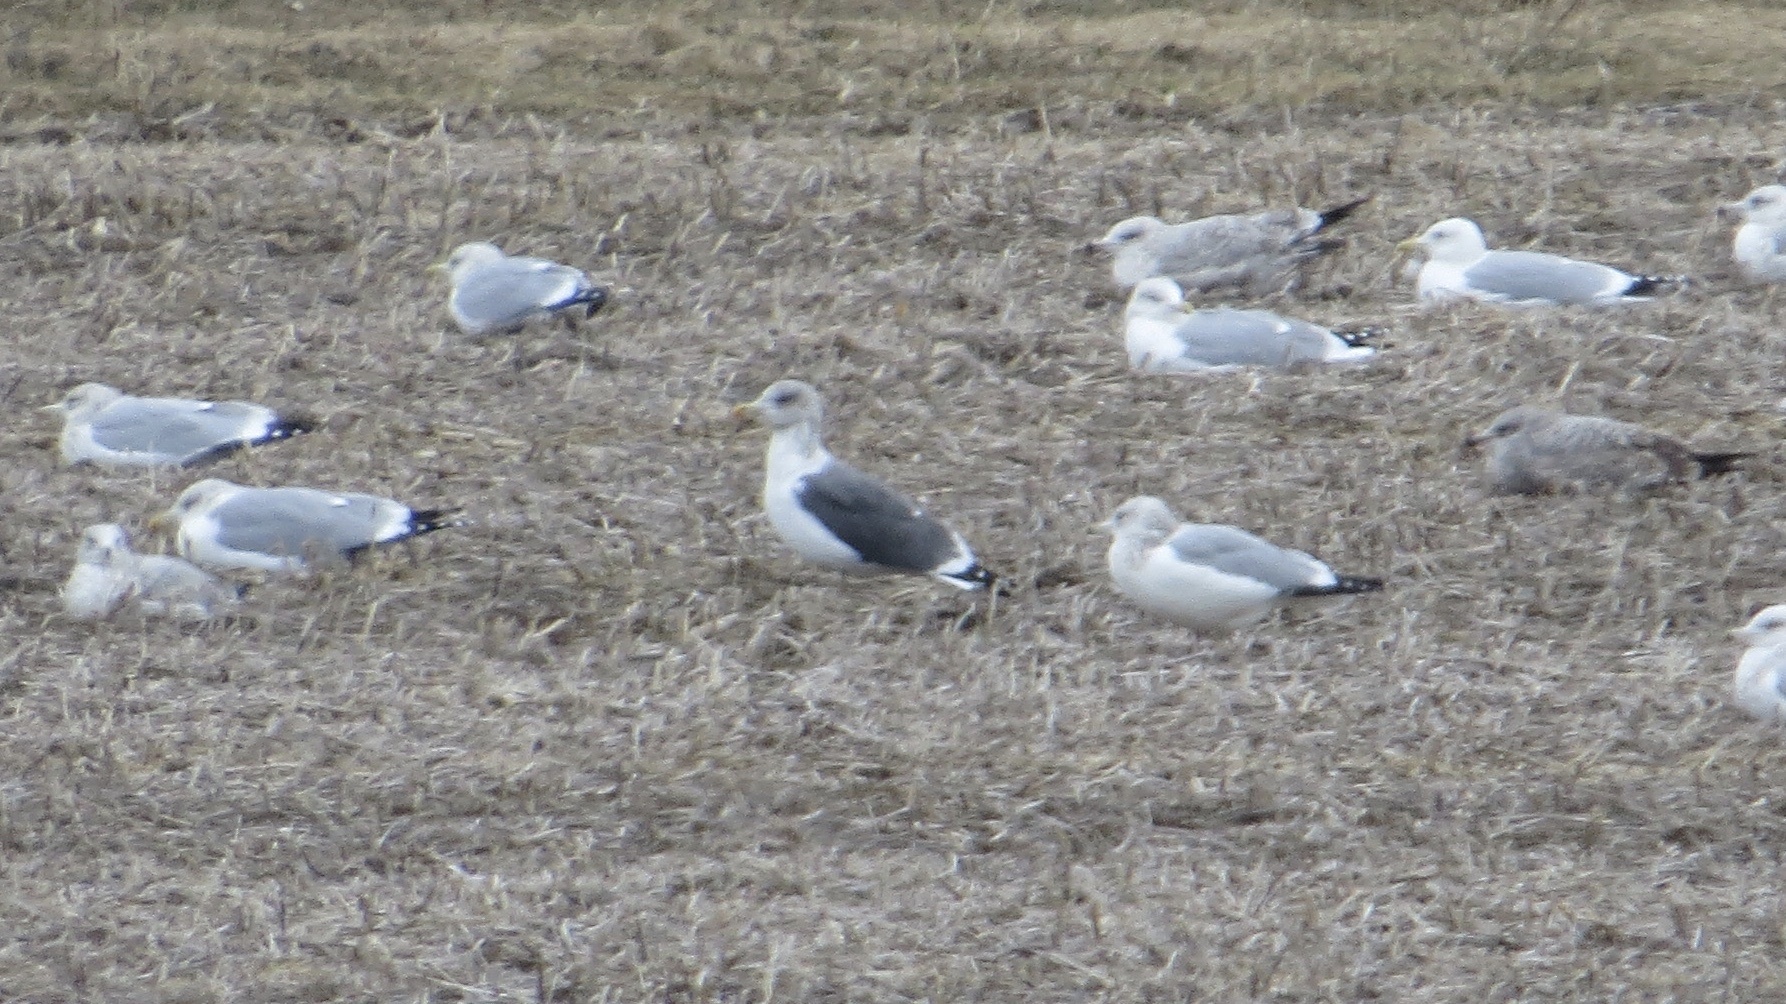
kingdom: Animalia
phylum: Chordata
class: Aves
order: Charadriiformes
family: Laridae
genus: Larus
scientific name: Larus fuscus
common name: Lesser black-backed gull
